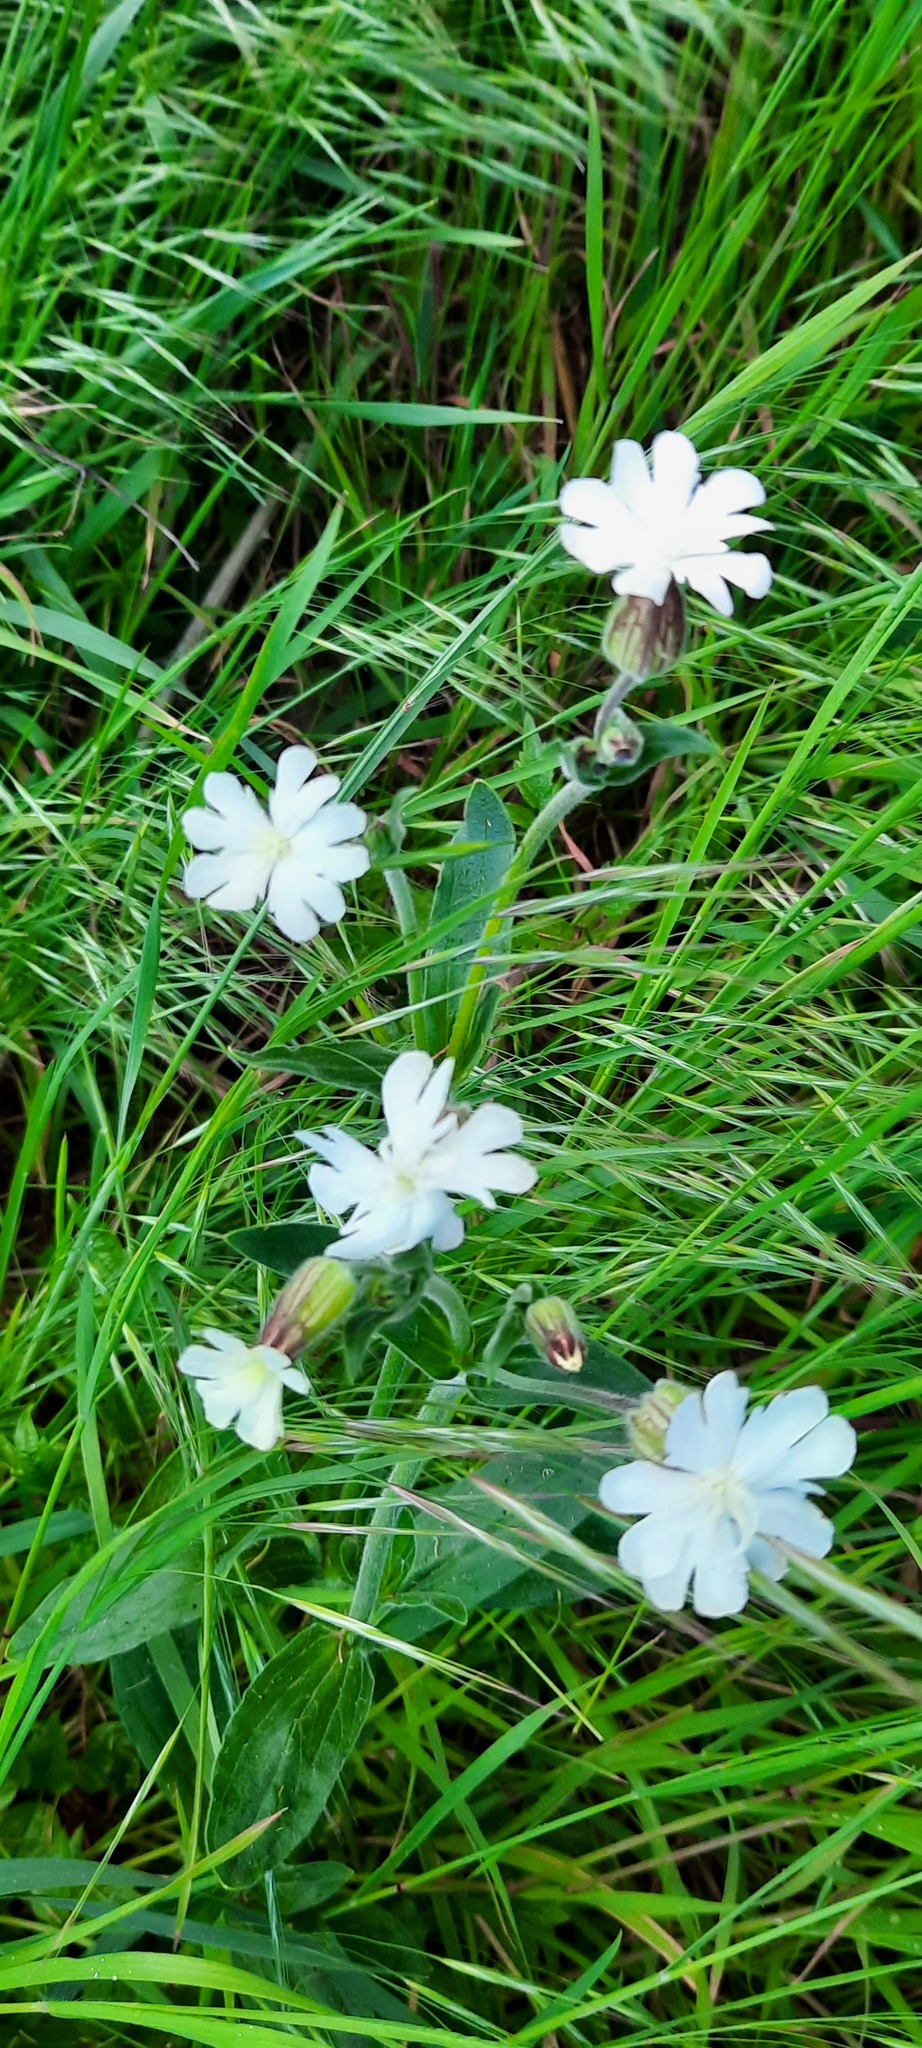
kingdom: Plantae
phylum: Tracheophyta
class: Magnoliopsida
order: Caryophyllales
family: Caryophyllaceae
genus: Silene
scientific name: Silene latifolia
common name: White campion
